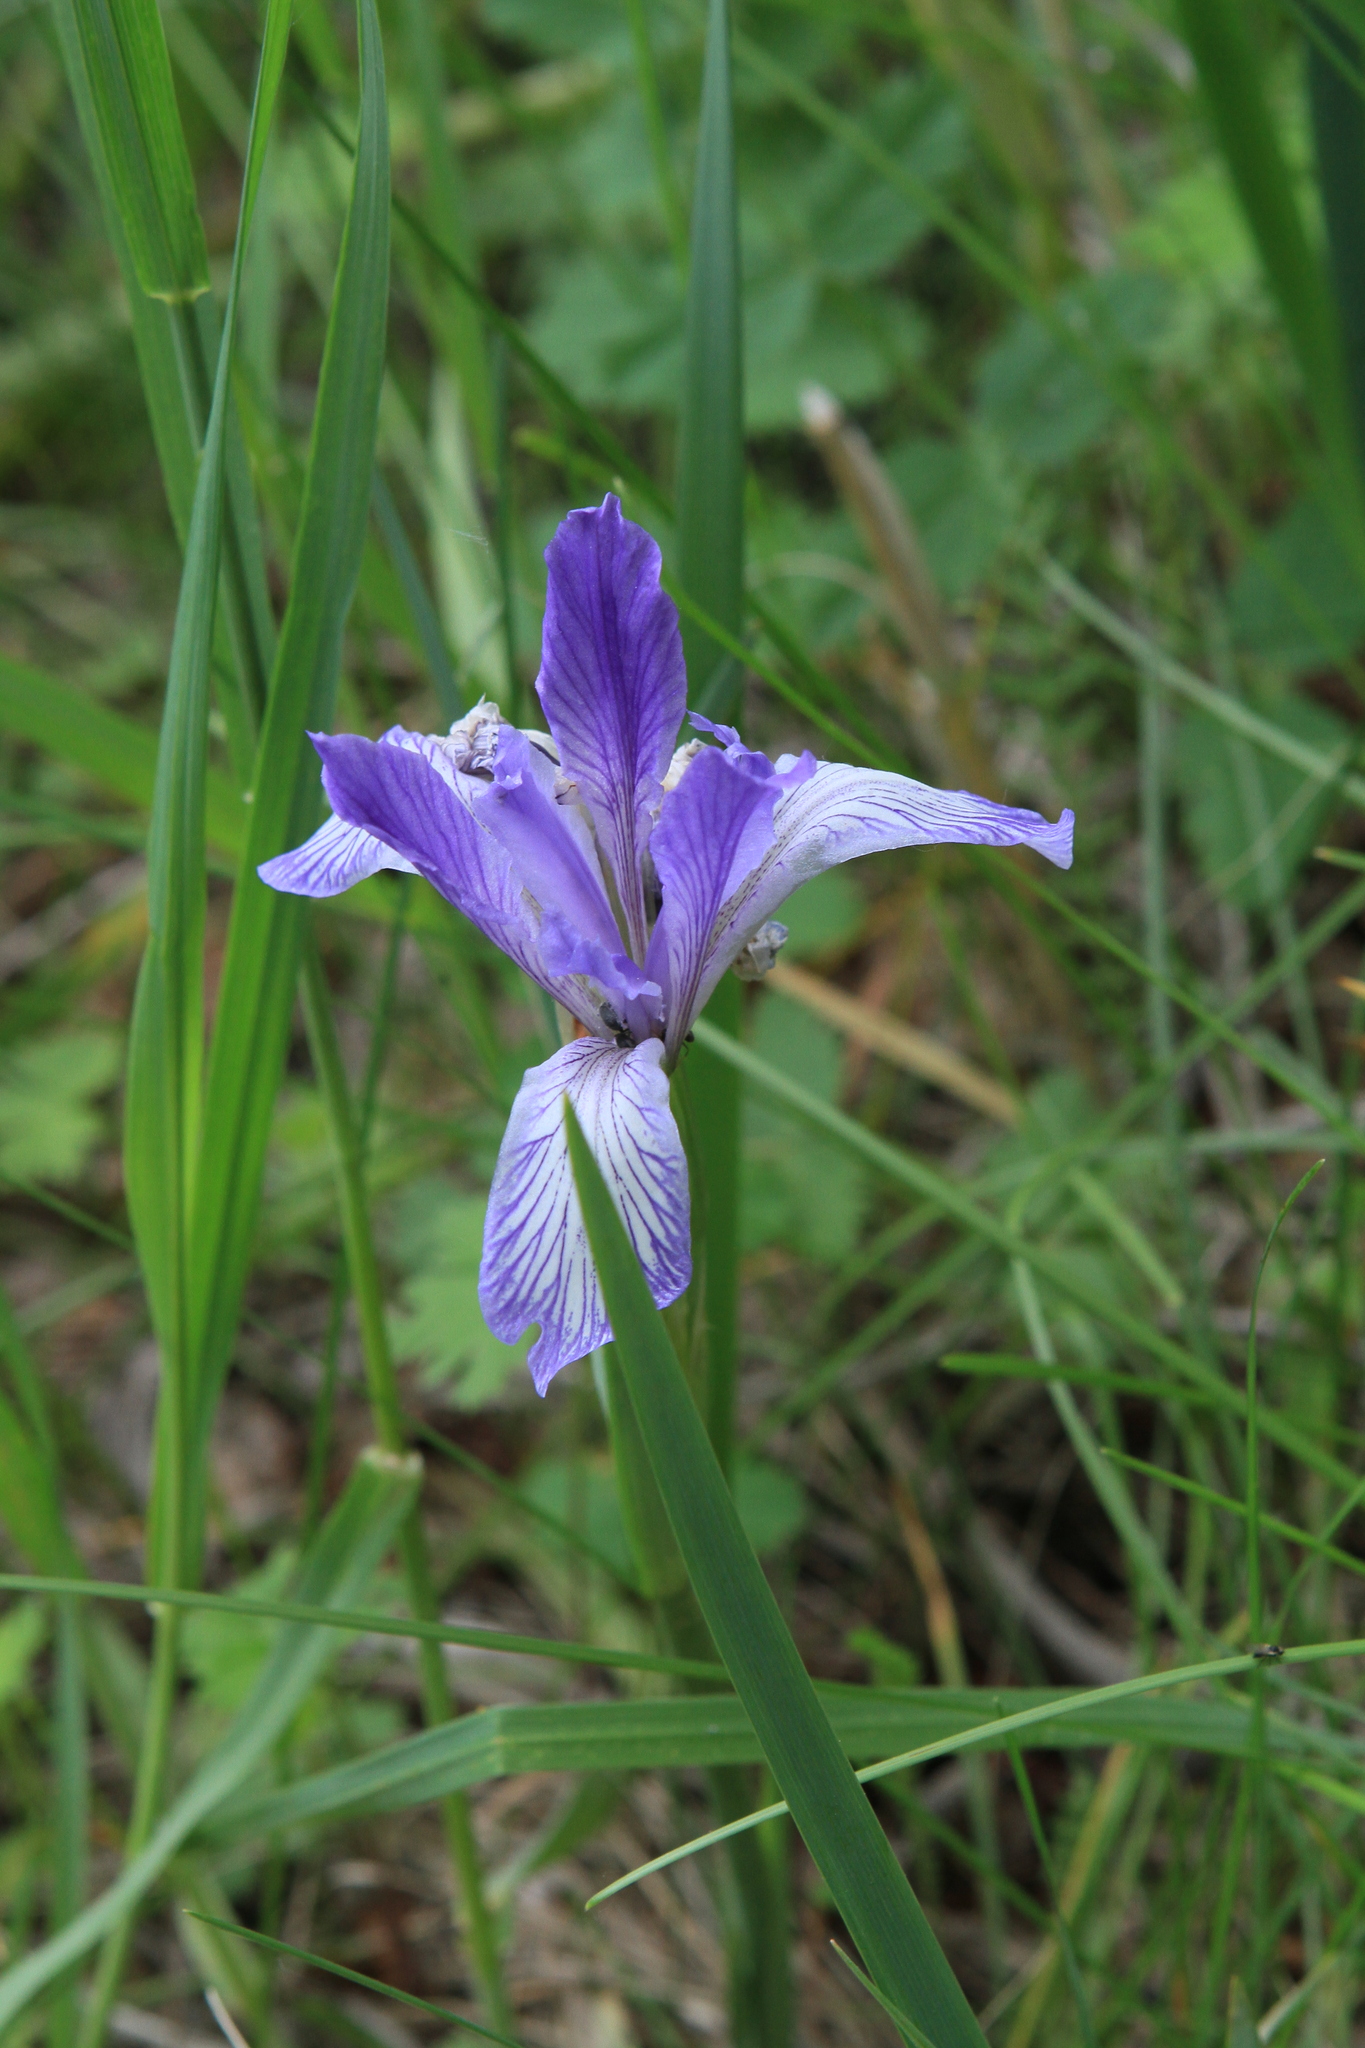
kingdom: Plantae
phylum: Tracheophyta
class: Liliopsida
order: Asparagales
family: Iridaceae
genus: Iris
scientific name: Iris lactea
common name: White-flower chinese iris
